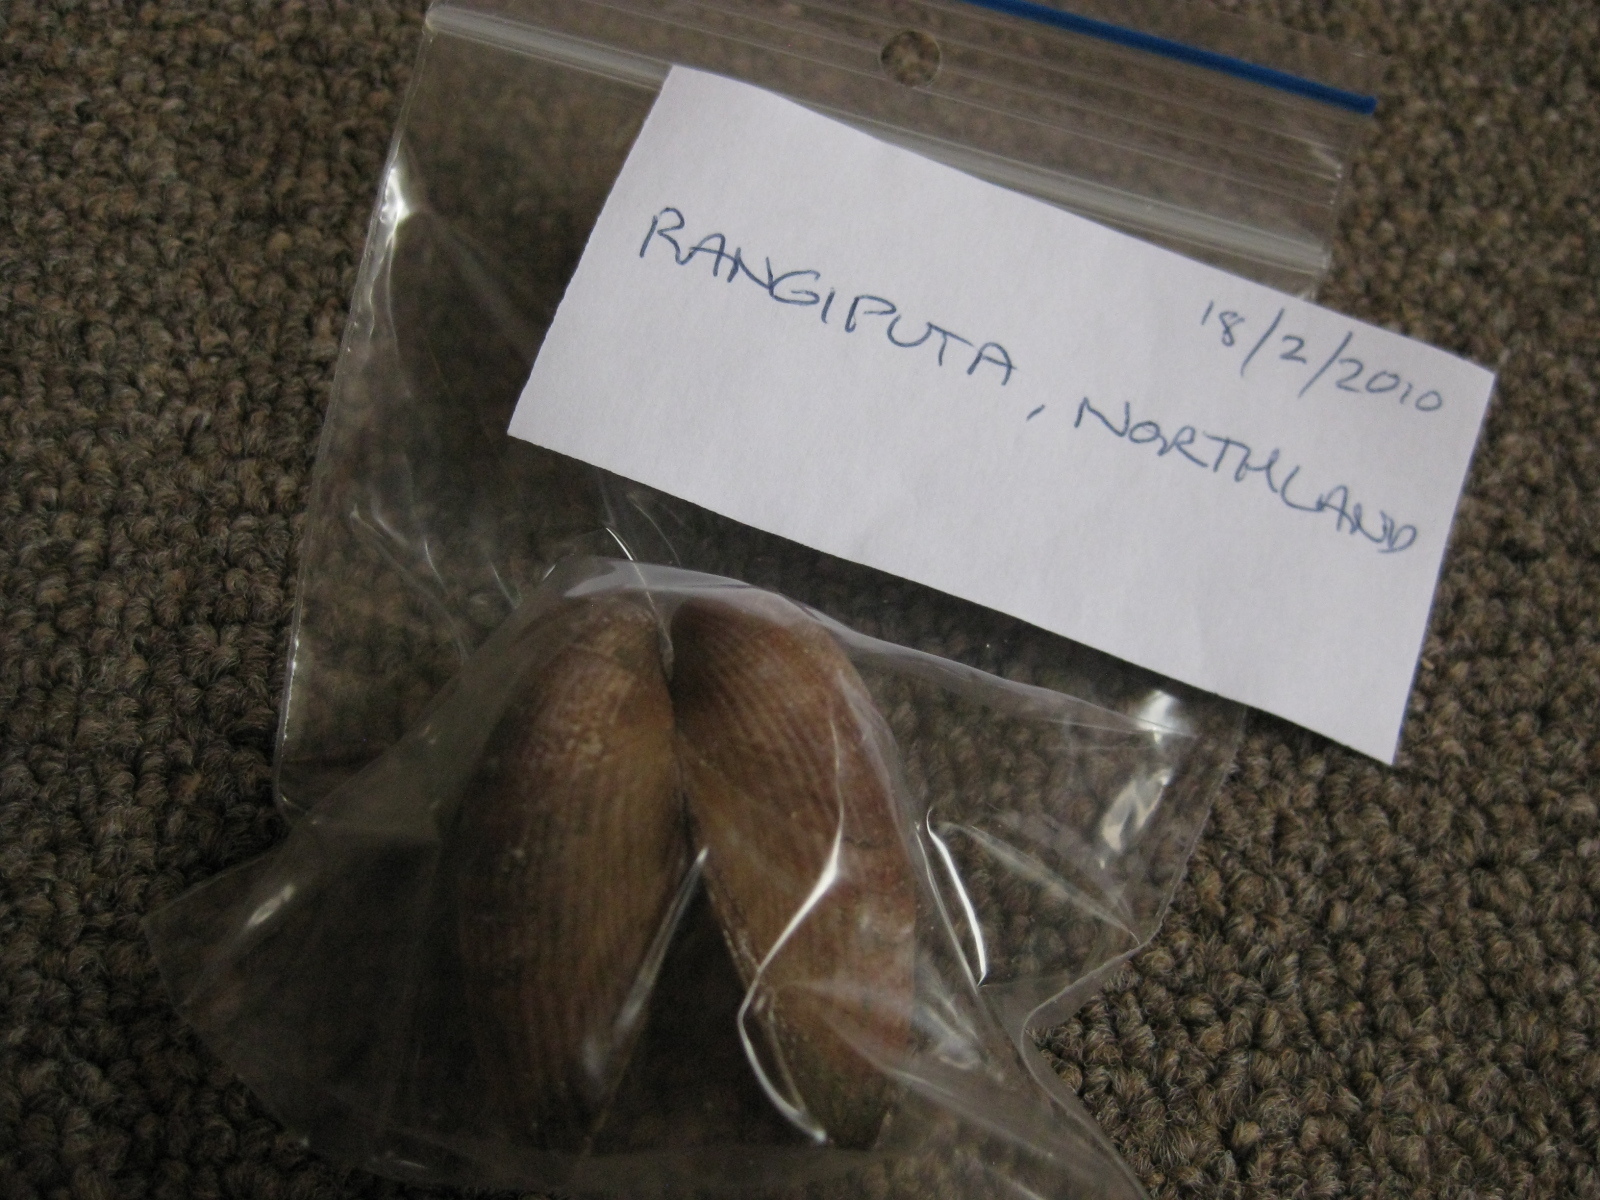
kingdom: Animalia
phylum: Mollusca
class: Bivalvia
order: Mytilida
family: Mytilidae
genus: Musculus
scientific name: Musculus impactus
